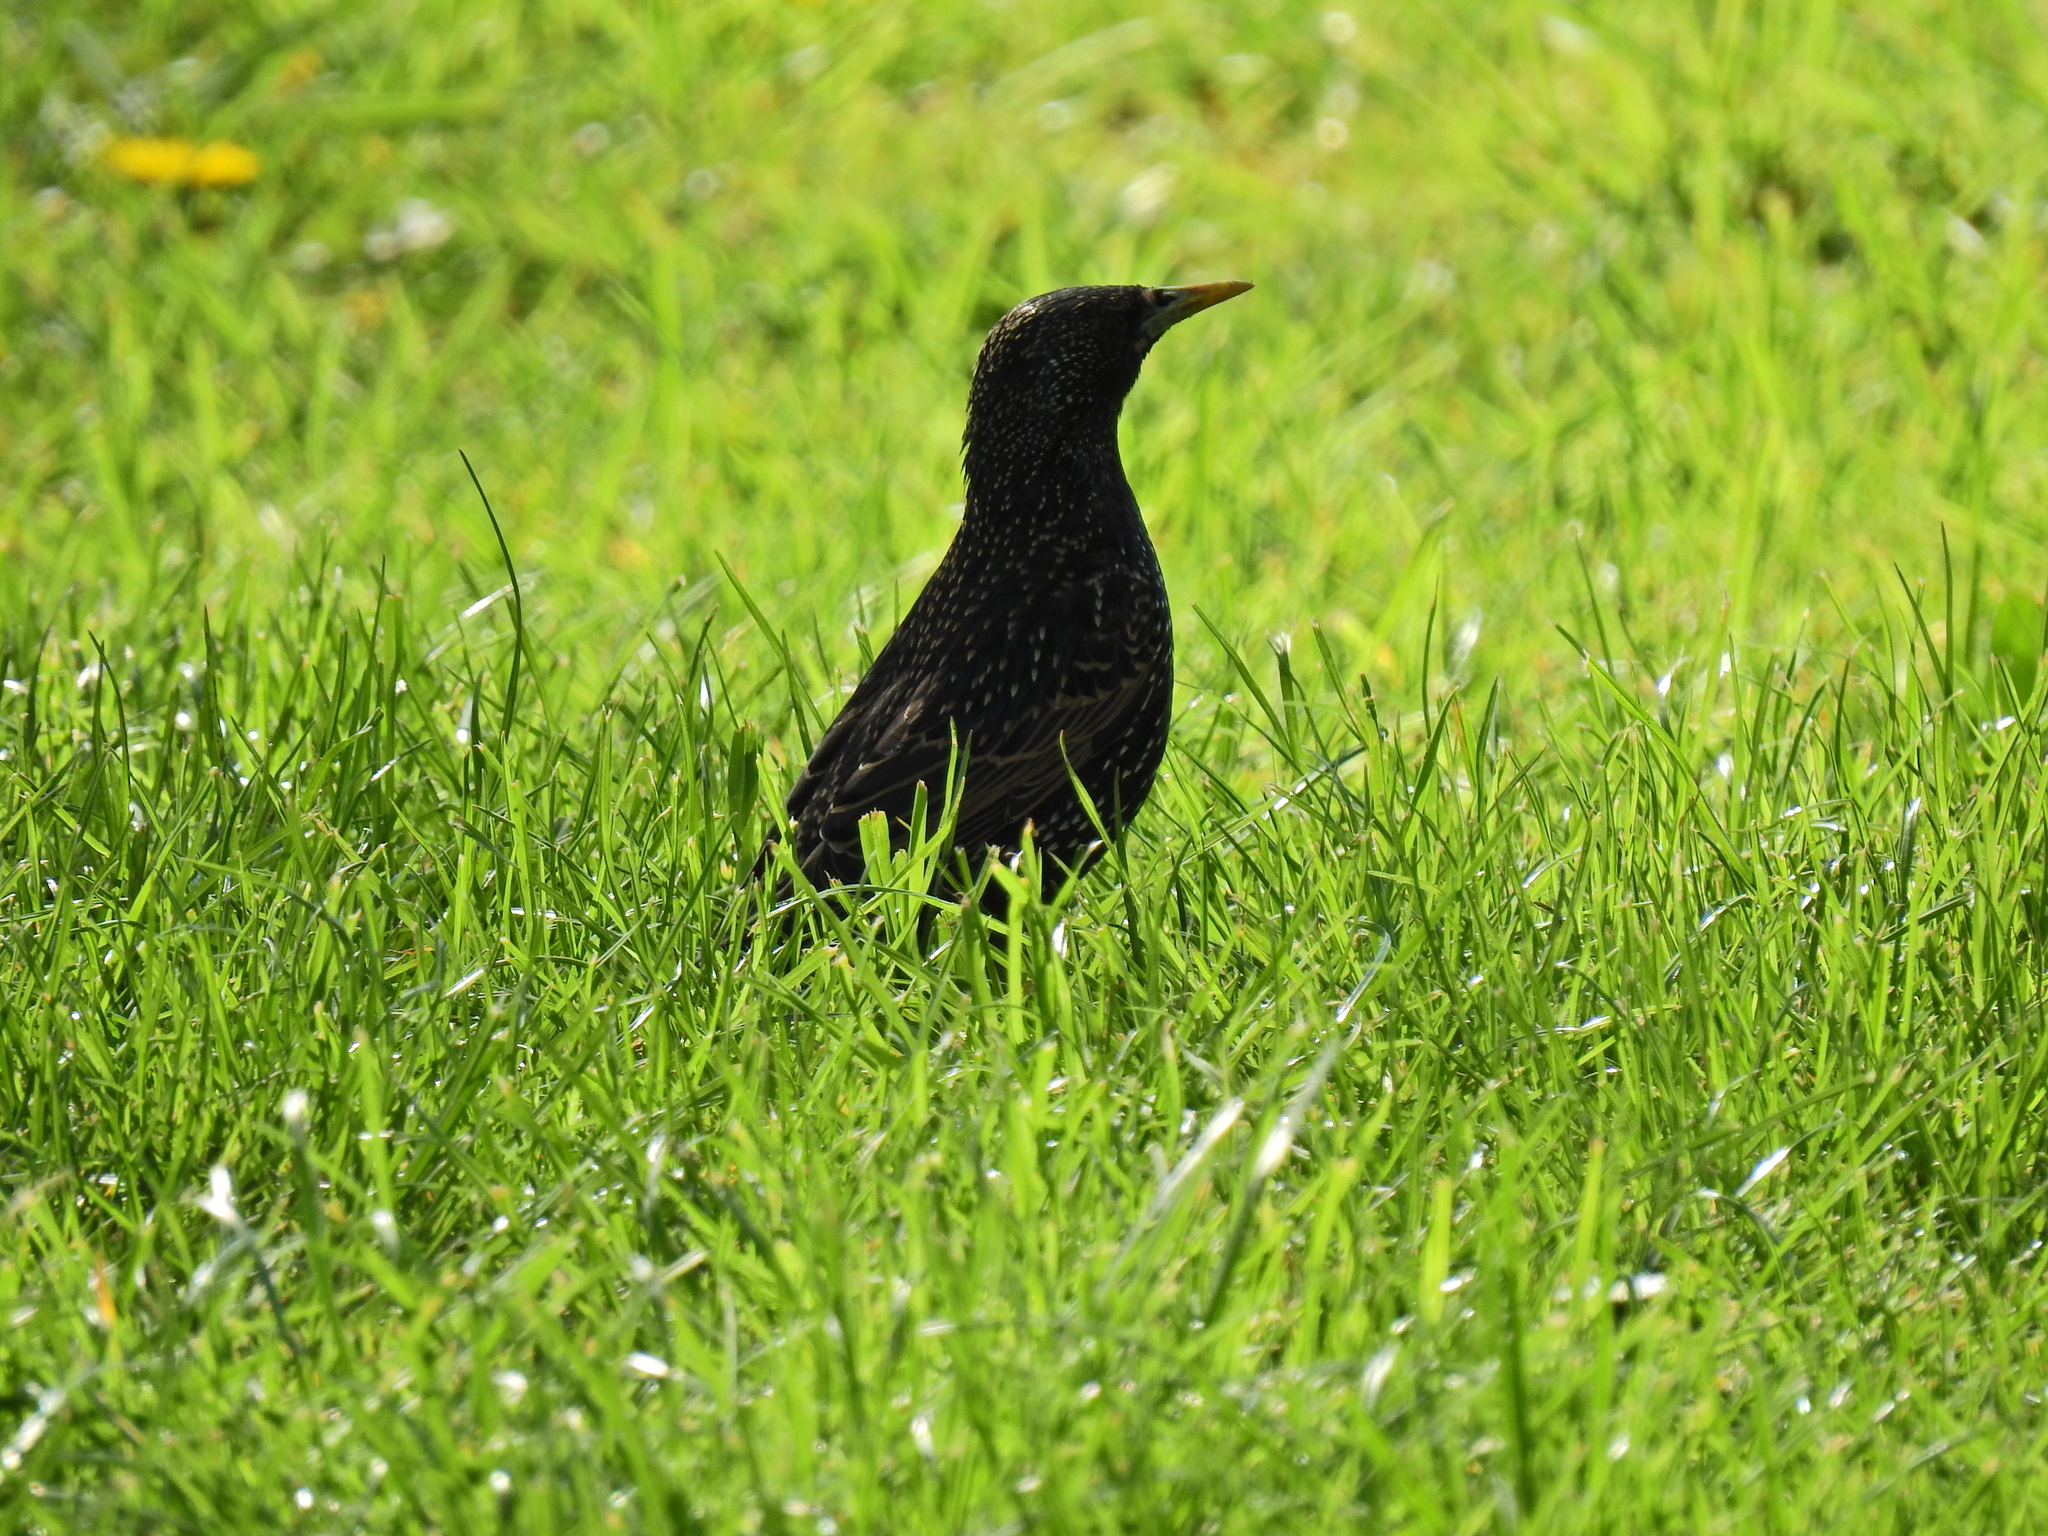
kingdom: Animalia
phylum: Chordata
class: Aves
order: Passeriformes
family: Sturnidae
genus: Sturnus
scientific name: Sturnus vulgaris
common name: Common starling
